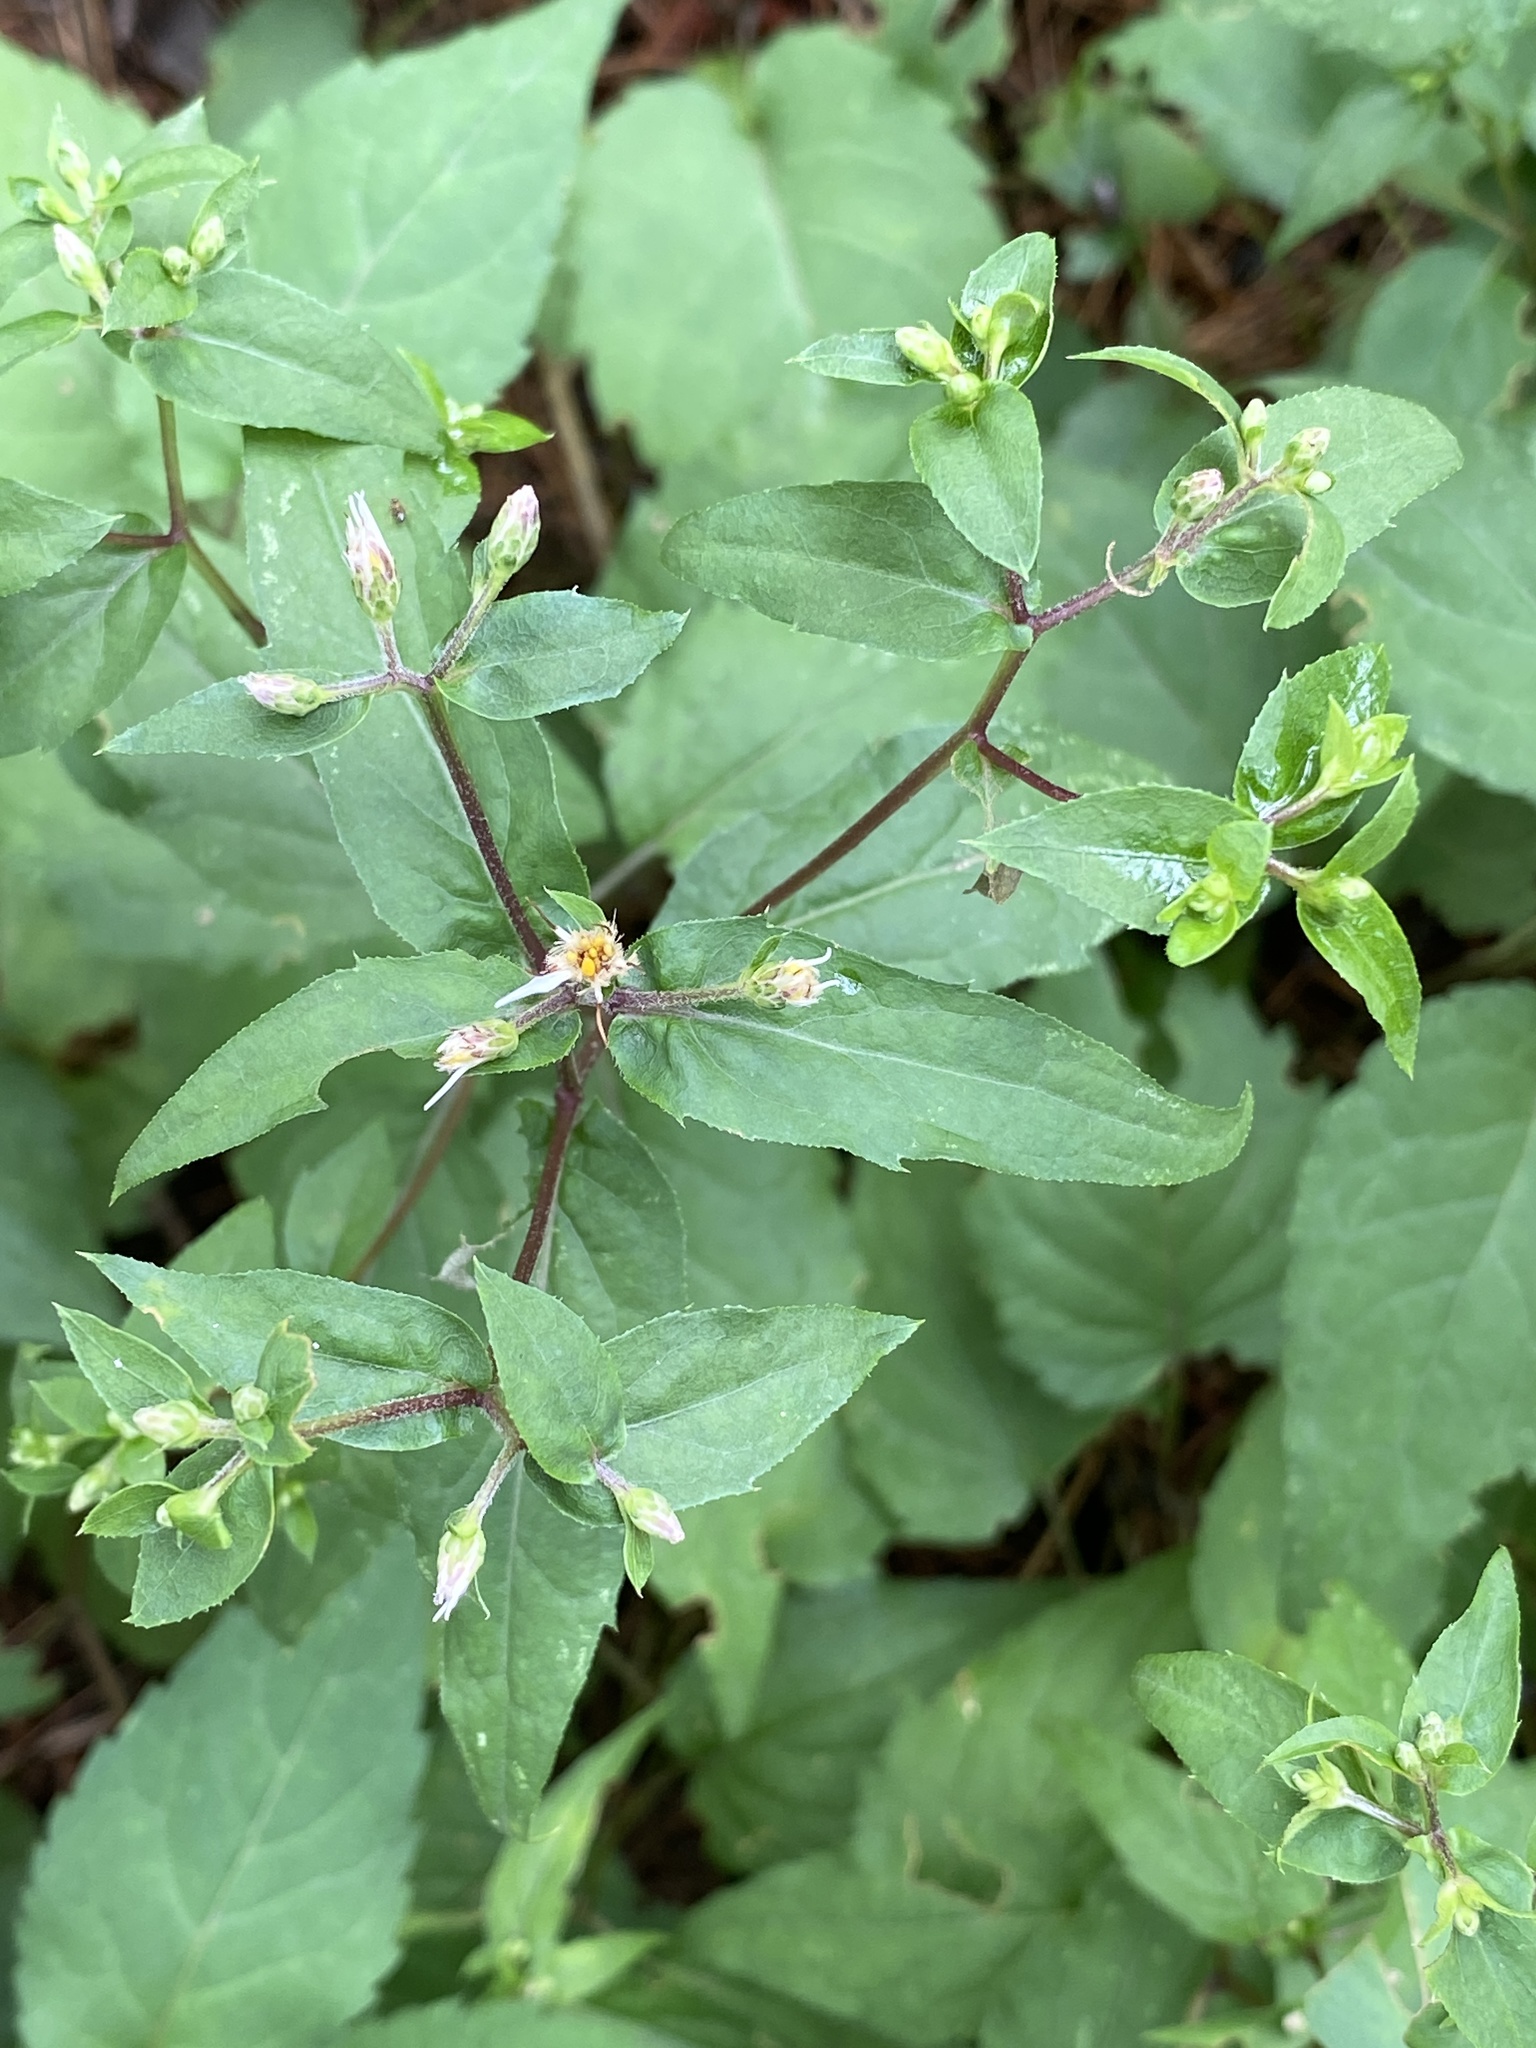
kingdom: Plantae
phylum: Tracheophyta
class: Magnoliopsida
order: Asterales
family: Asteraceae
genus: Eurybia
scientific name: Eurybia divaricata
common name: White wood aster
